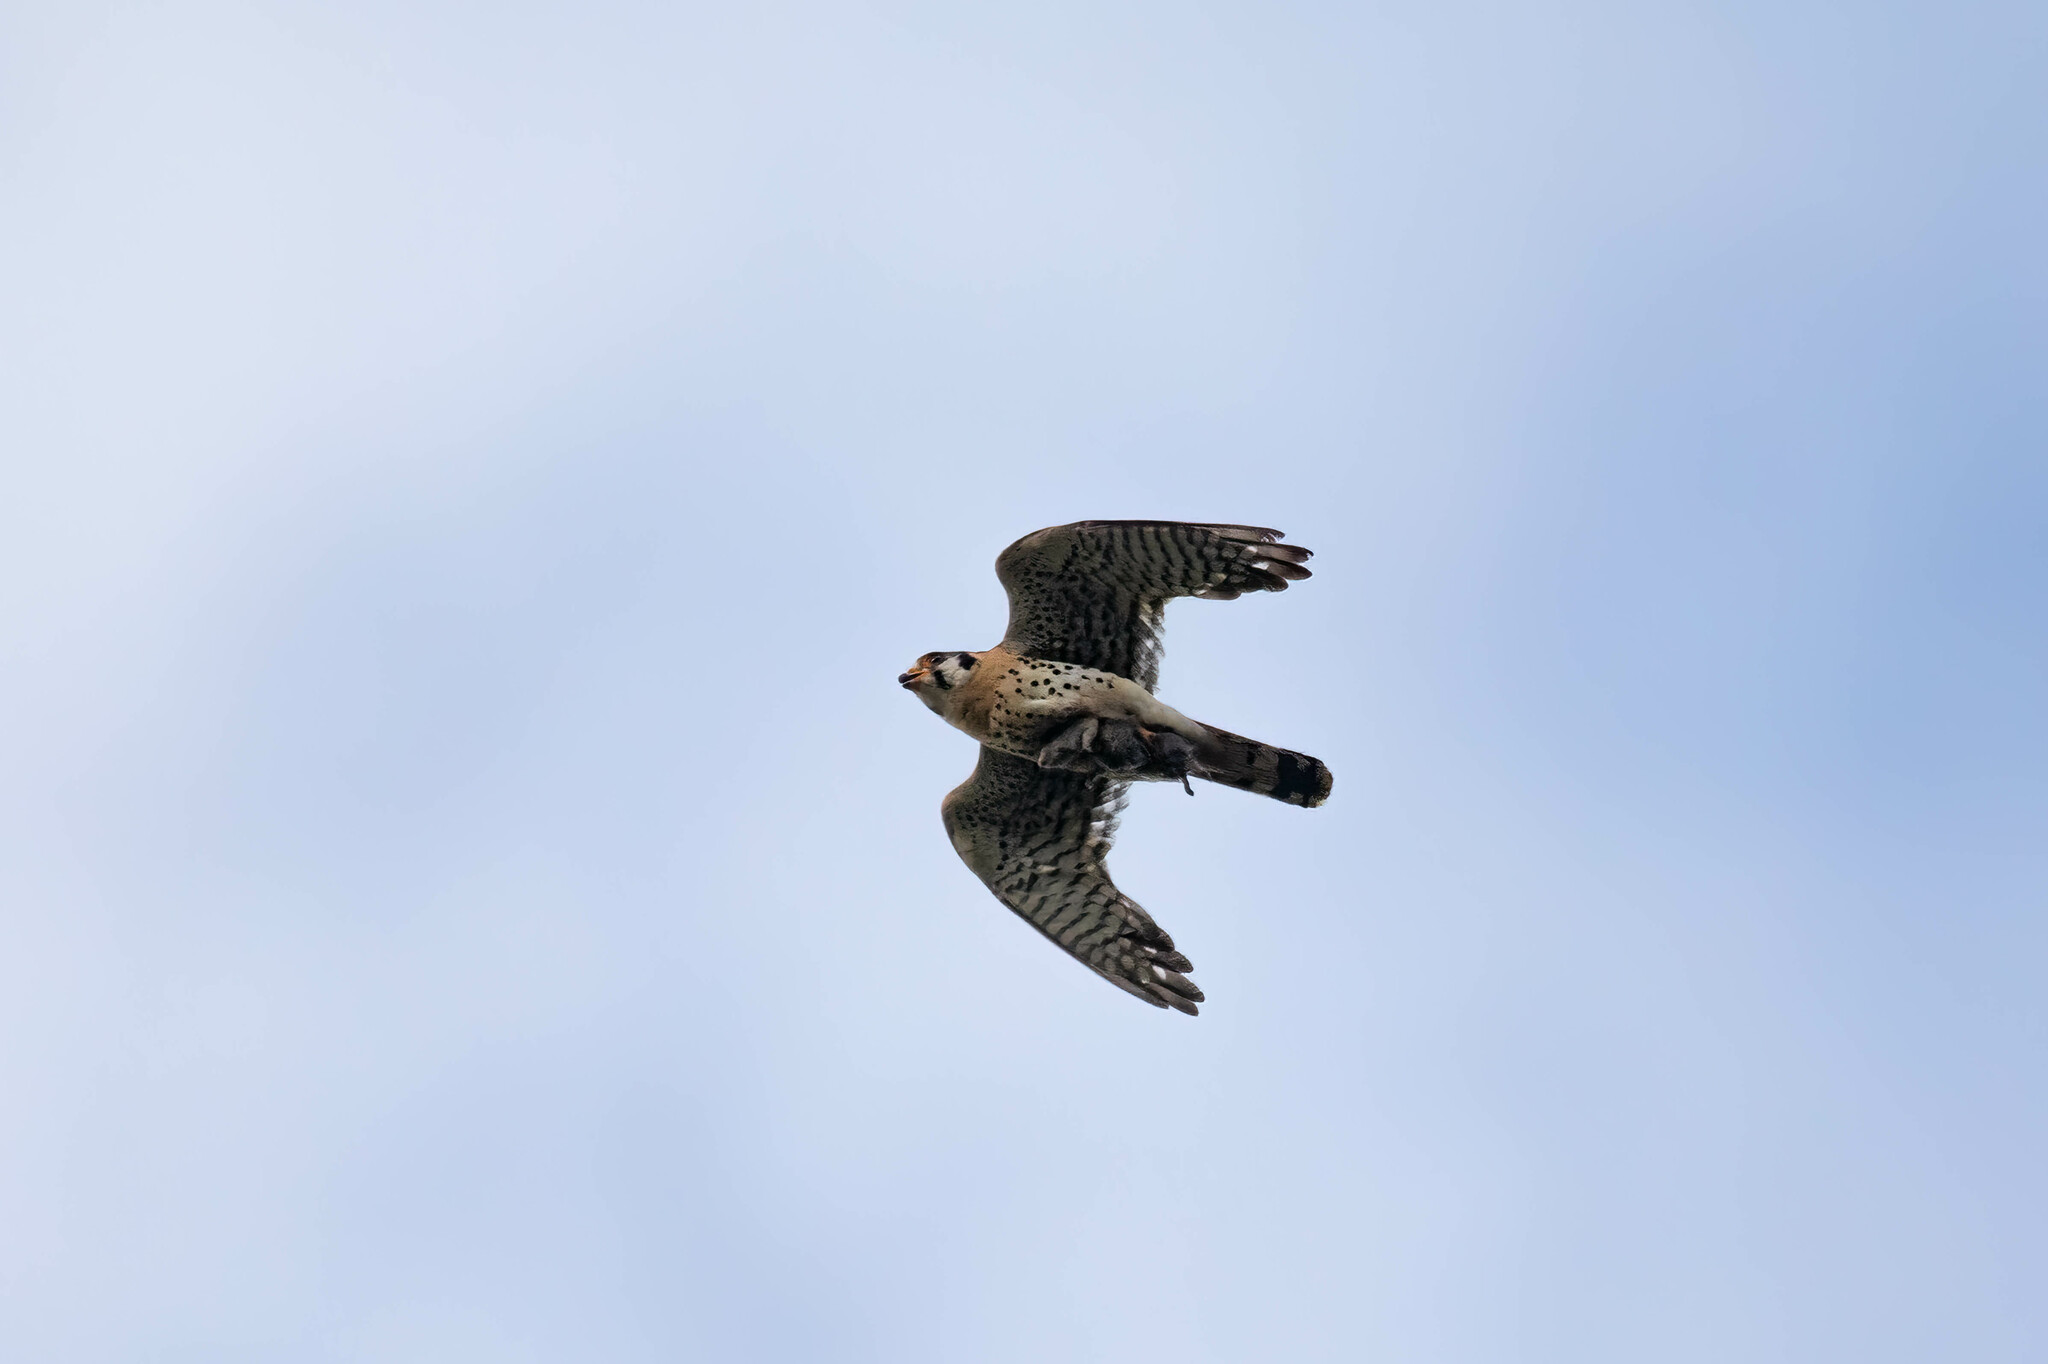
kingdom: Animalia
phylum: Chordata
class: Aves
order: Falconiformes
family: Falconidae
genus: Falco
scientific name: Falco sparverius
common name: American kestrel
